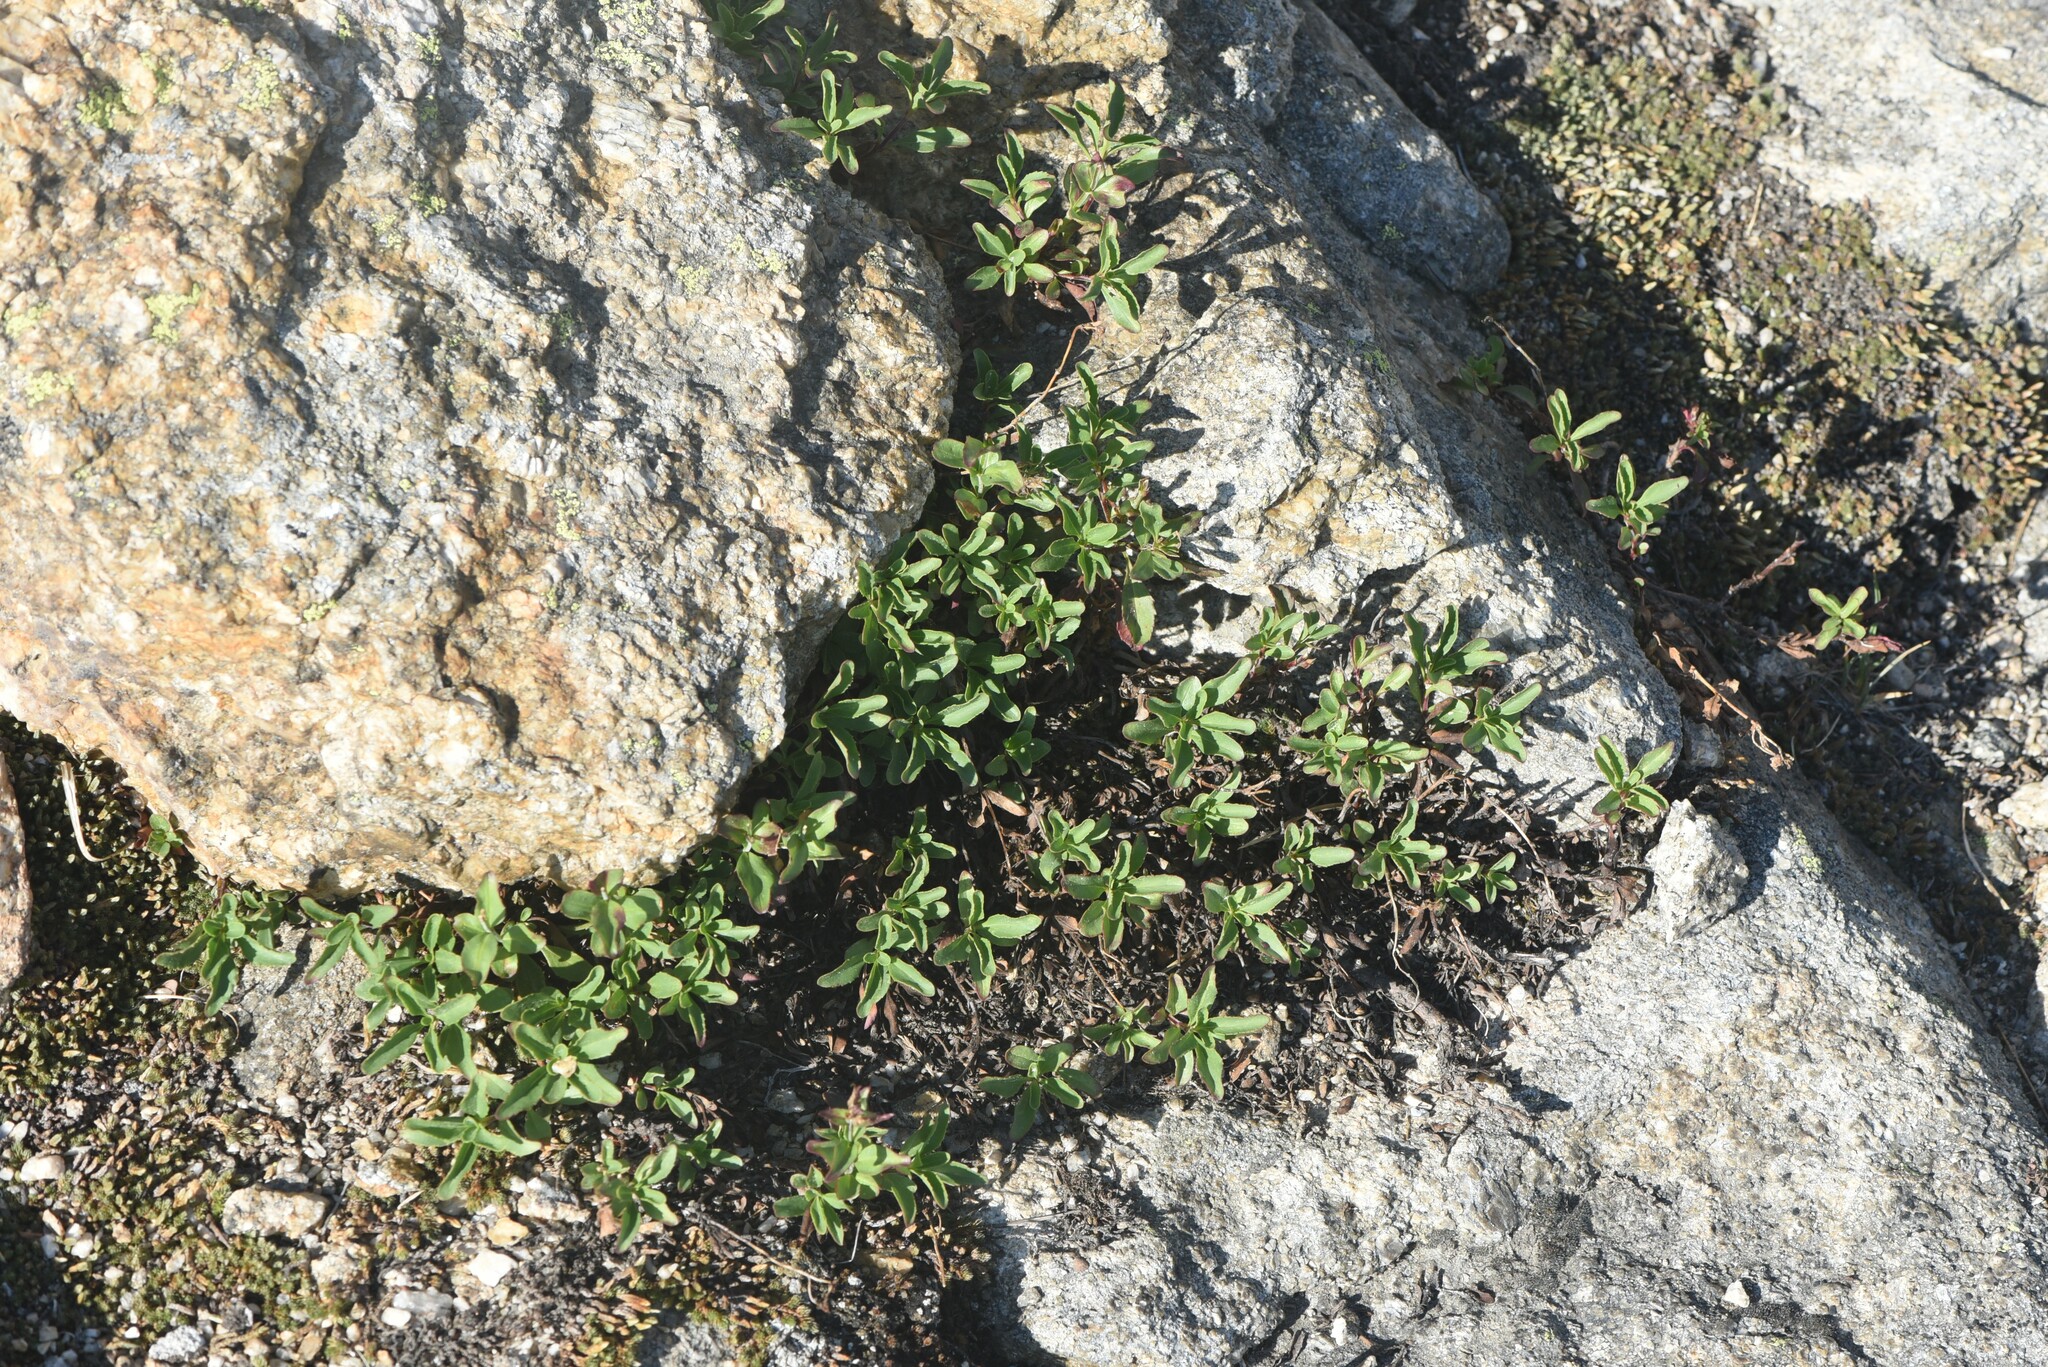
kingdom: Plantae
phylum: Tracheophyta
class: Magnoliopsida
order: Lamiales
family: Plantaginaceae
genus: Penstemon
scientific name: Penstemon ellipticus
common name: Alpine beardtongue
